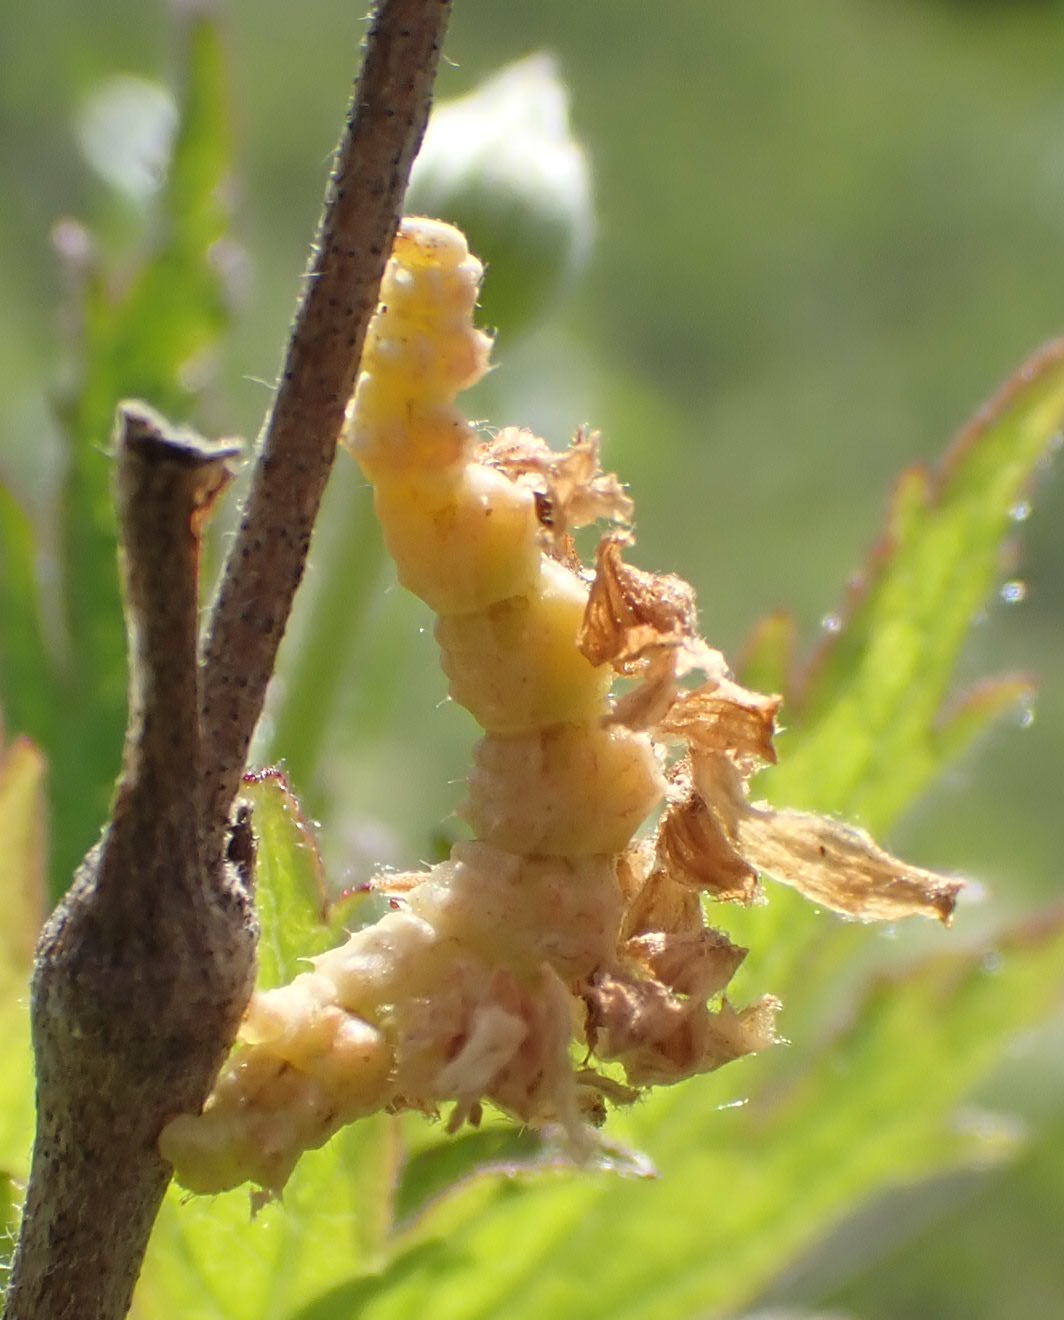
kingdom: Animalia
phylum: Arthropoda
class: Insecta
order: Lepidoptera
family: Geometridae
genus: Synchlora
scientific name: Synchlora aerata
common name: Wavy-lined emerald
